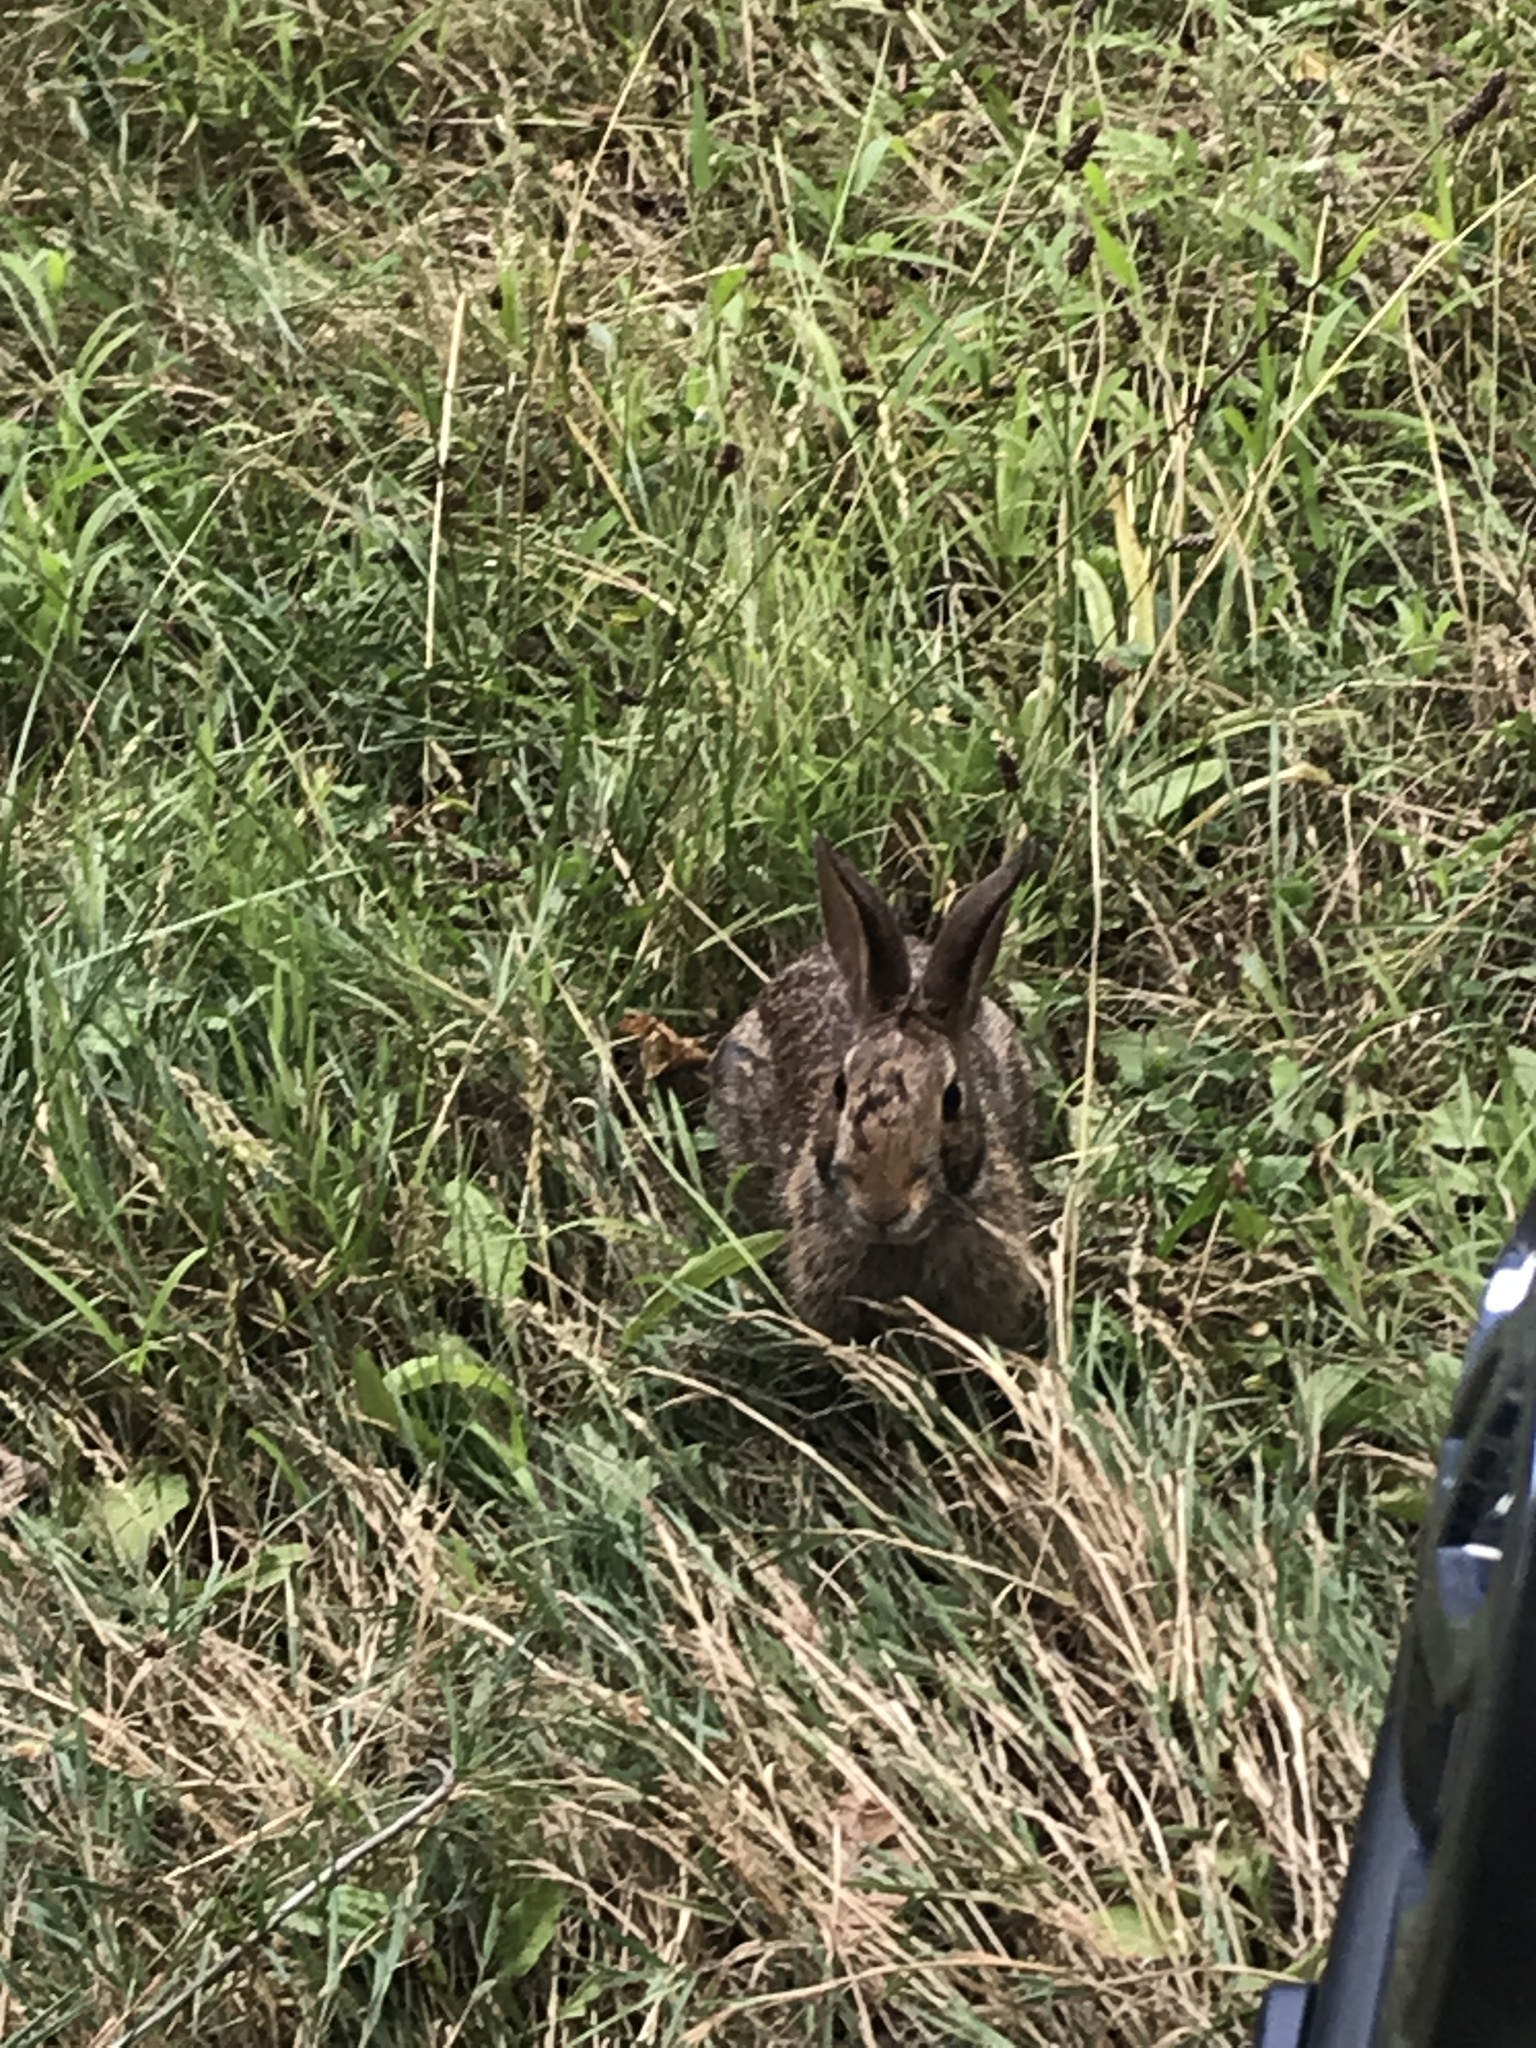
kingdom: Animalia
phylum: Chordata
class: Mammalia
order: Lagomorpha
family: Leporidae
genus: Sylvilagus
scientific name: Sylvilagus floridanus
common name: Eastern cottontail
